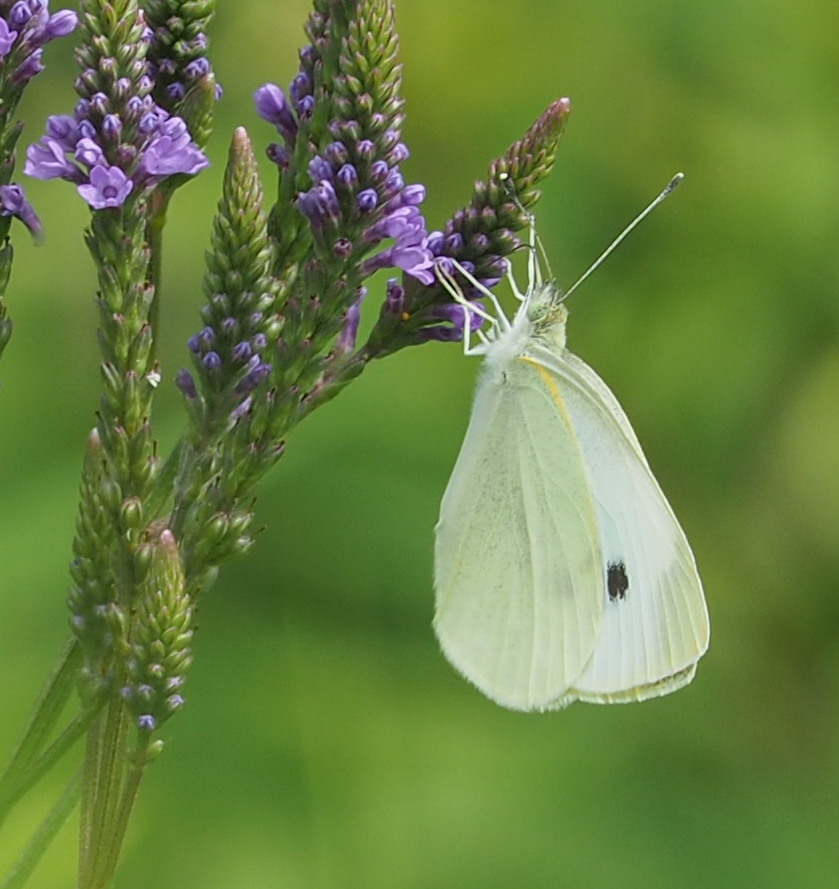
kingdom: Animalia
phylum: Arthropoda
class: Insecta
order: Lepidoptera
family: Pieridae
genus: Pieris
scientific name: Pieris rapae
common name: Small white
